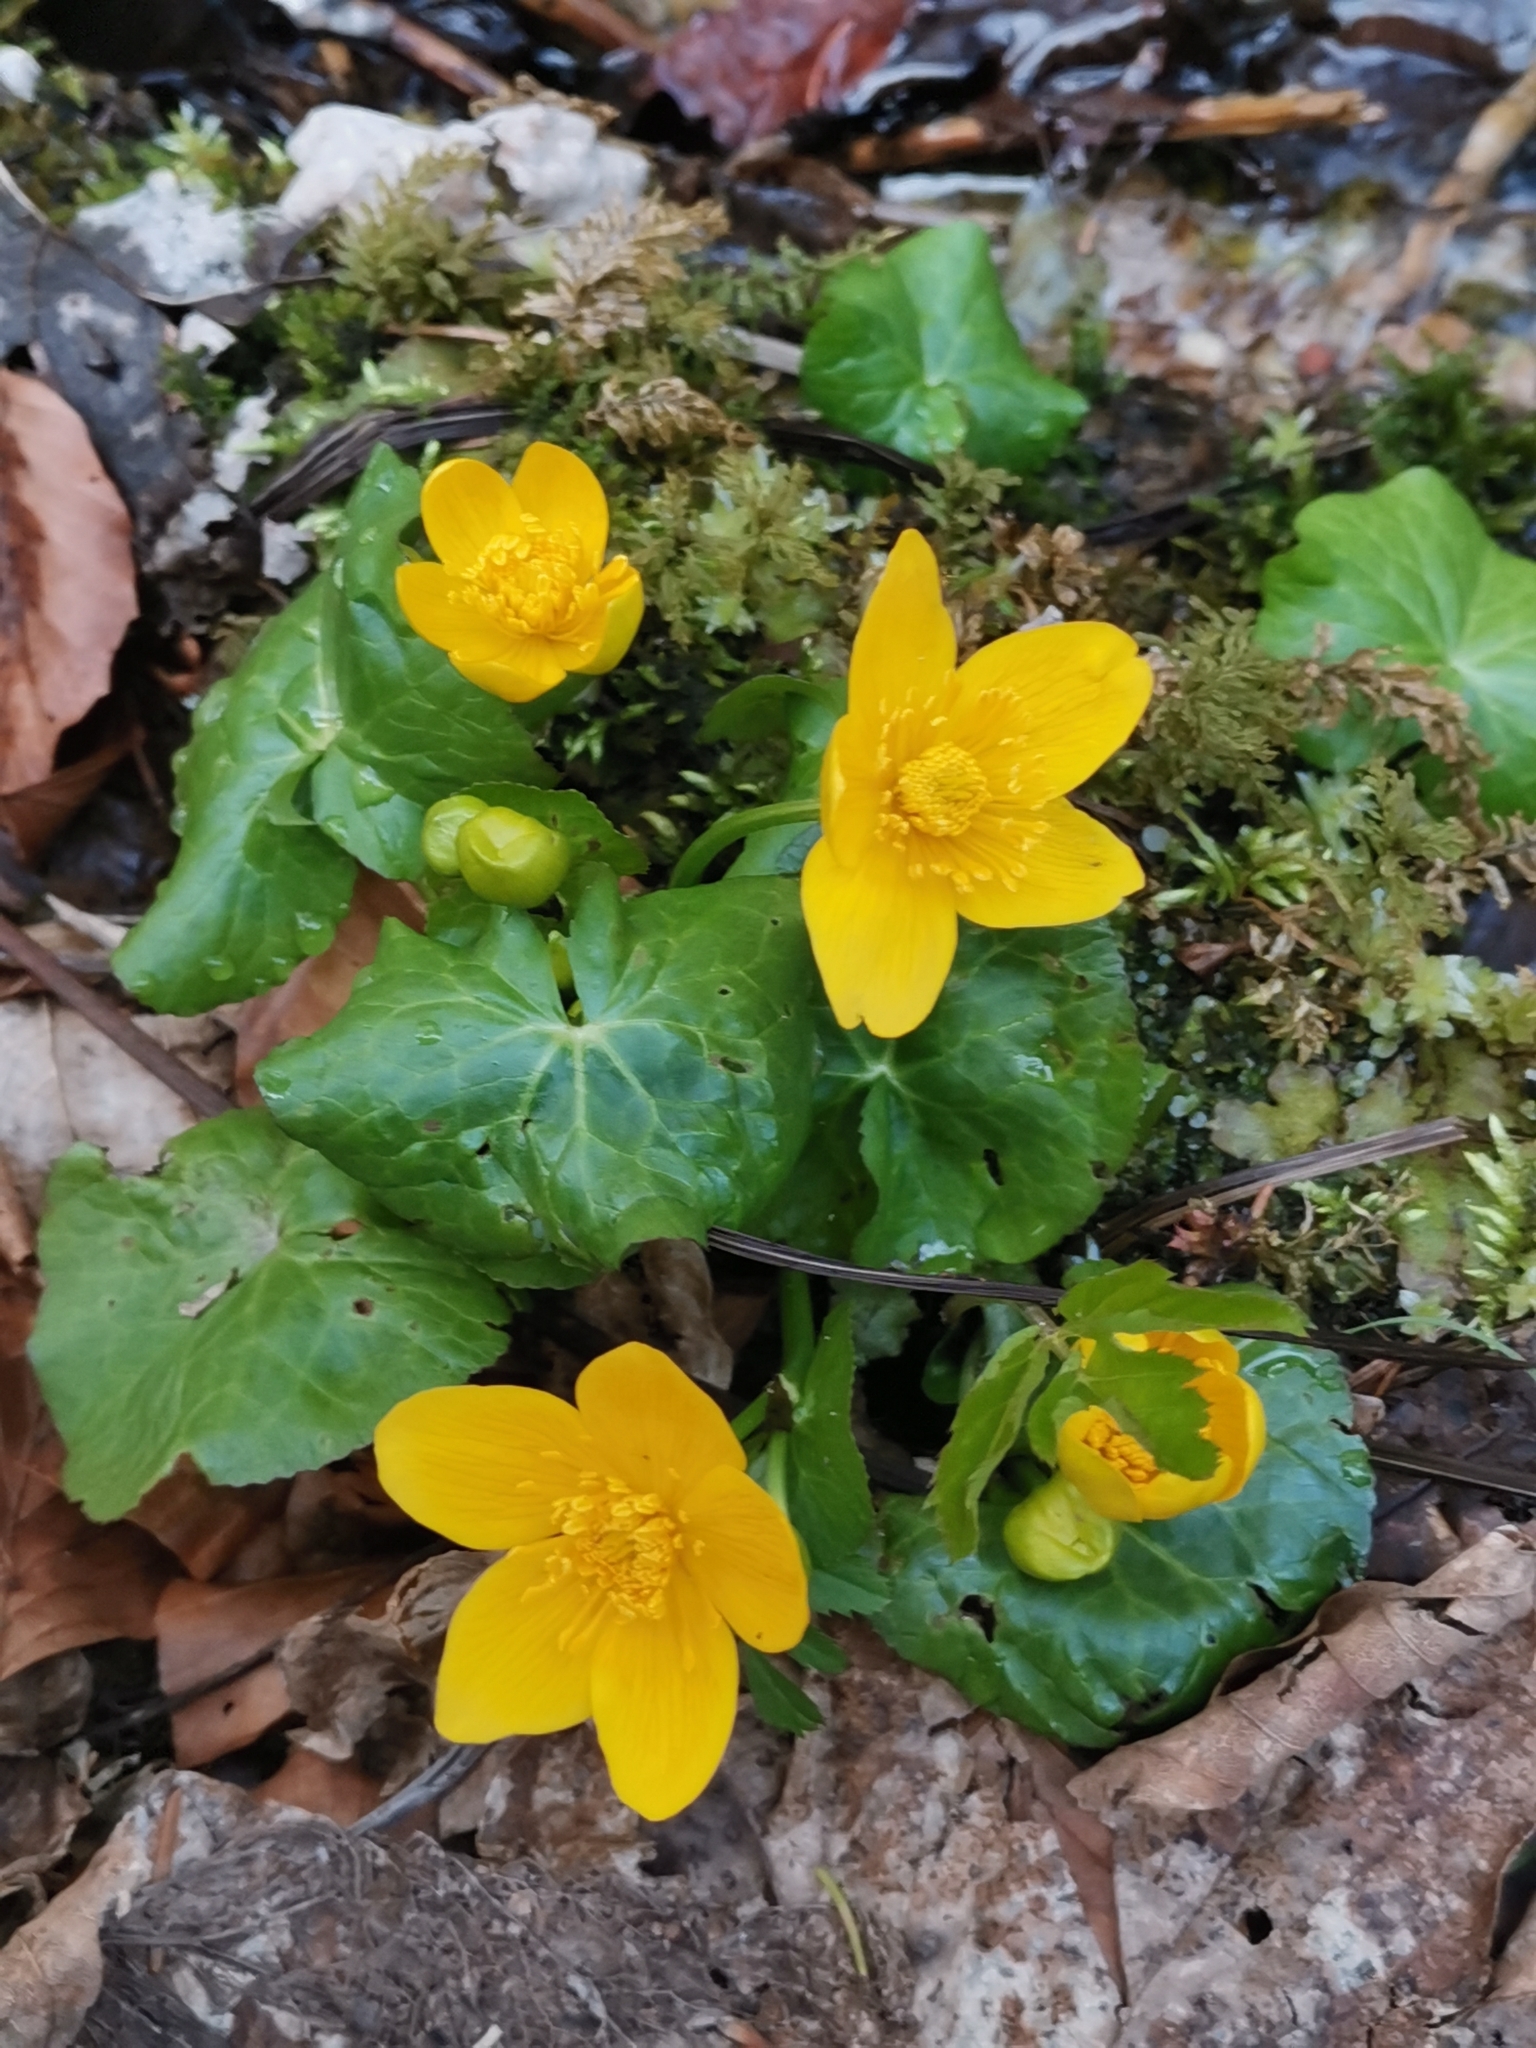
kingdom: Plantae
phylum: Tracheophyta
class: Magnoliopsida
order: Ranunculales
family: Ranunculaceae
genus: Caltha
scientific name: Caltha palustris
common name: Marsh marigold
